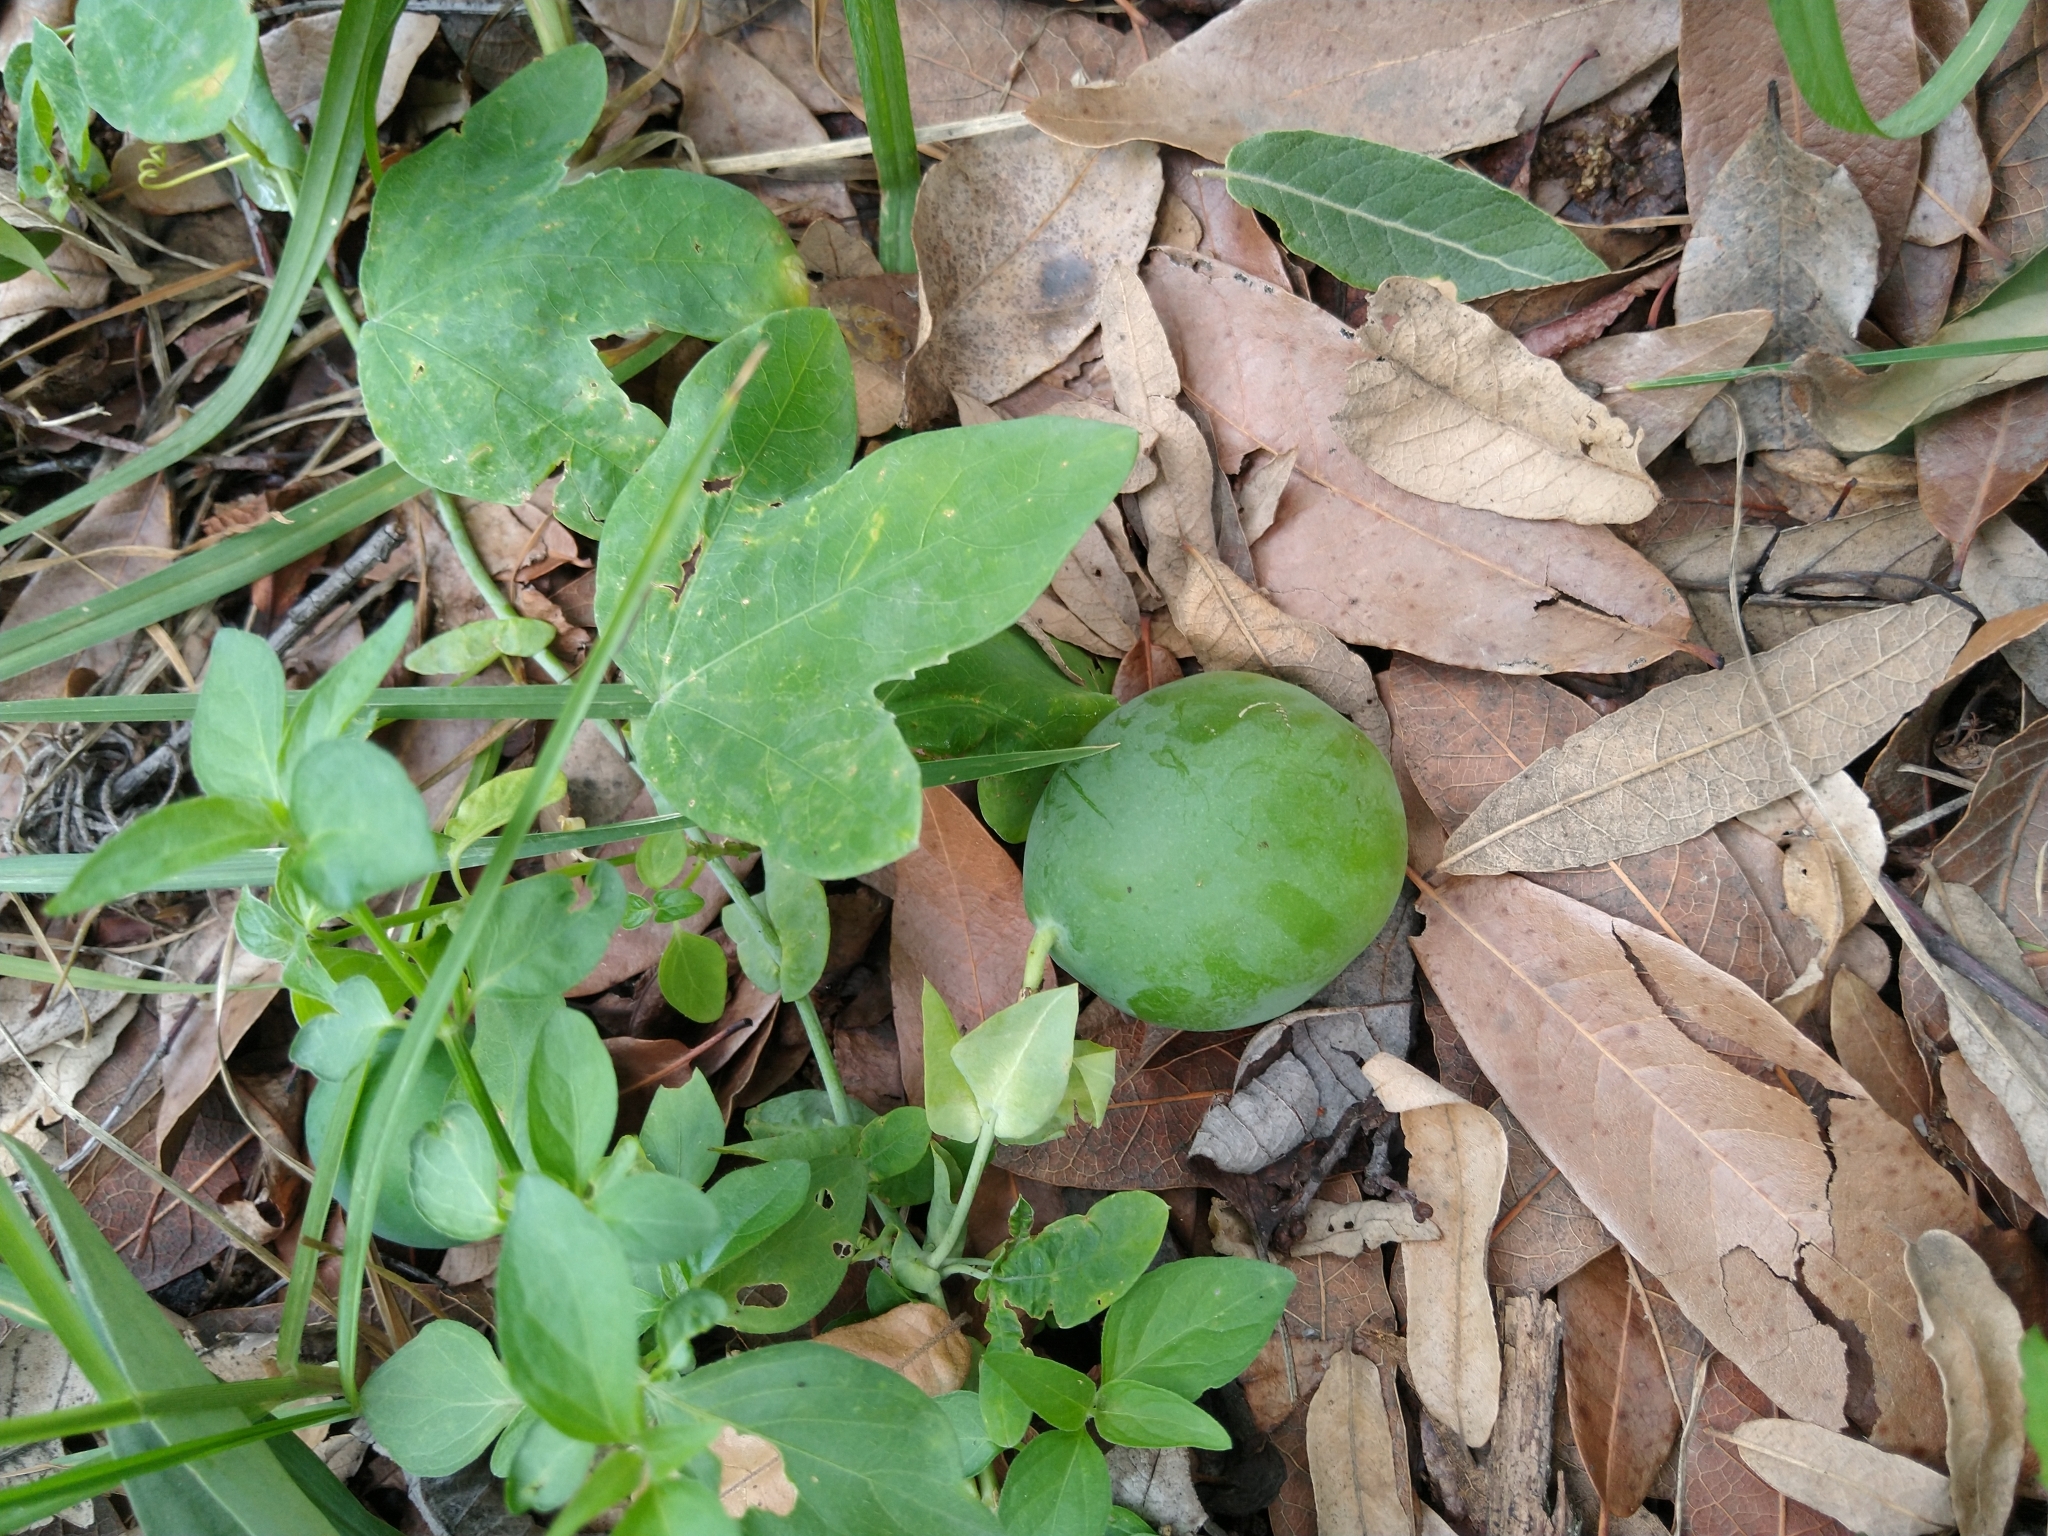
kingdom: Plantae
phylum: Tracheophyta
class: Magnoliopsida
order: Malpighiales
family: Passifloraceae
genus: Passiflora
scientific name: Passiflora subpeltata
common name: White passionflower
